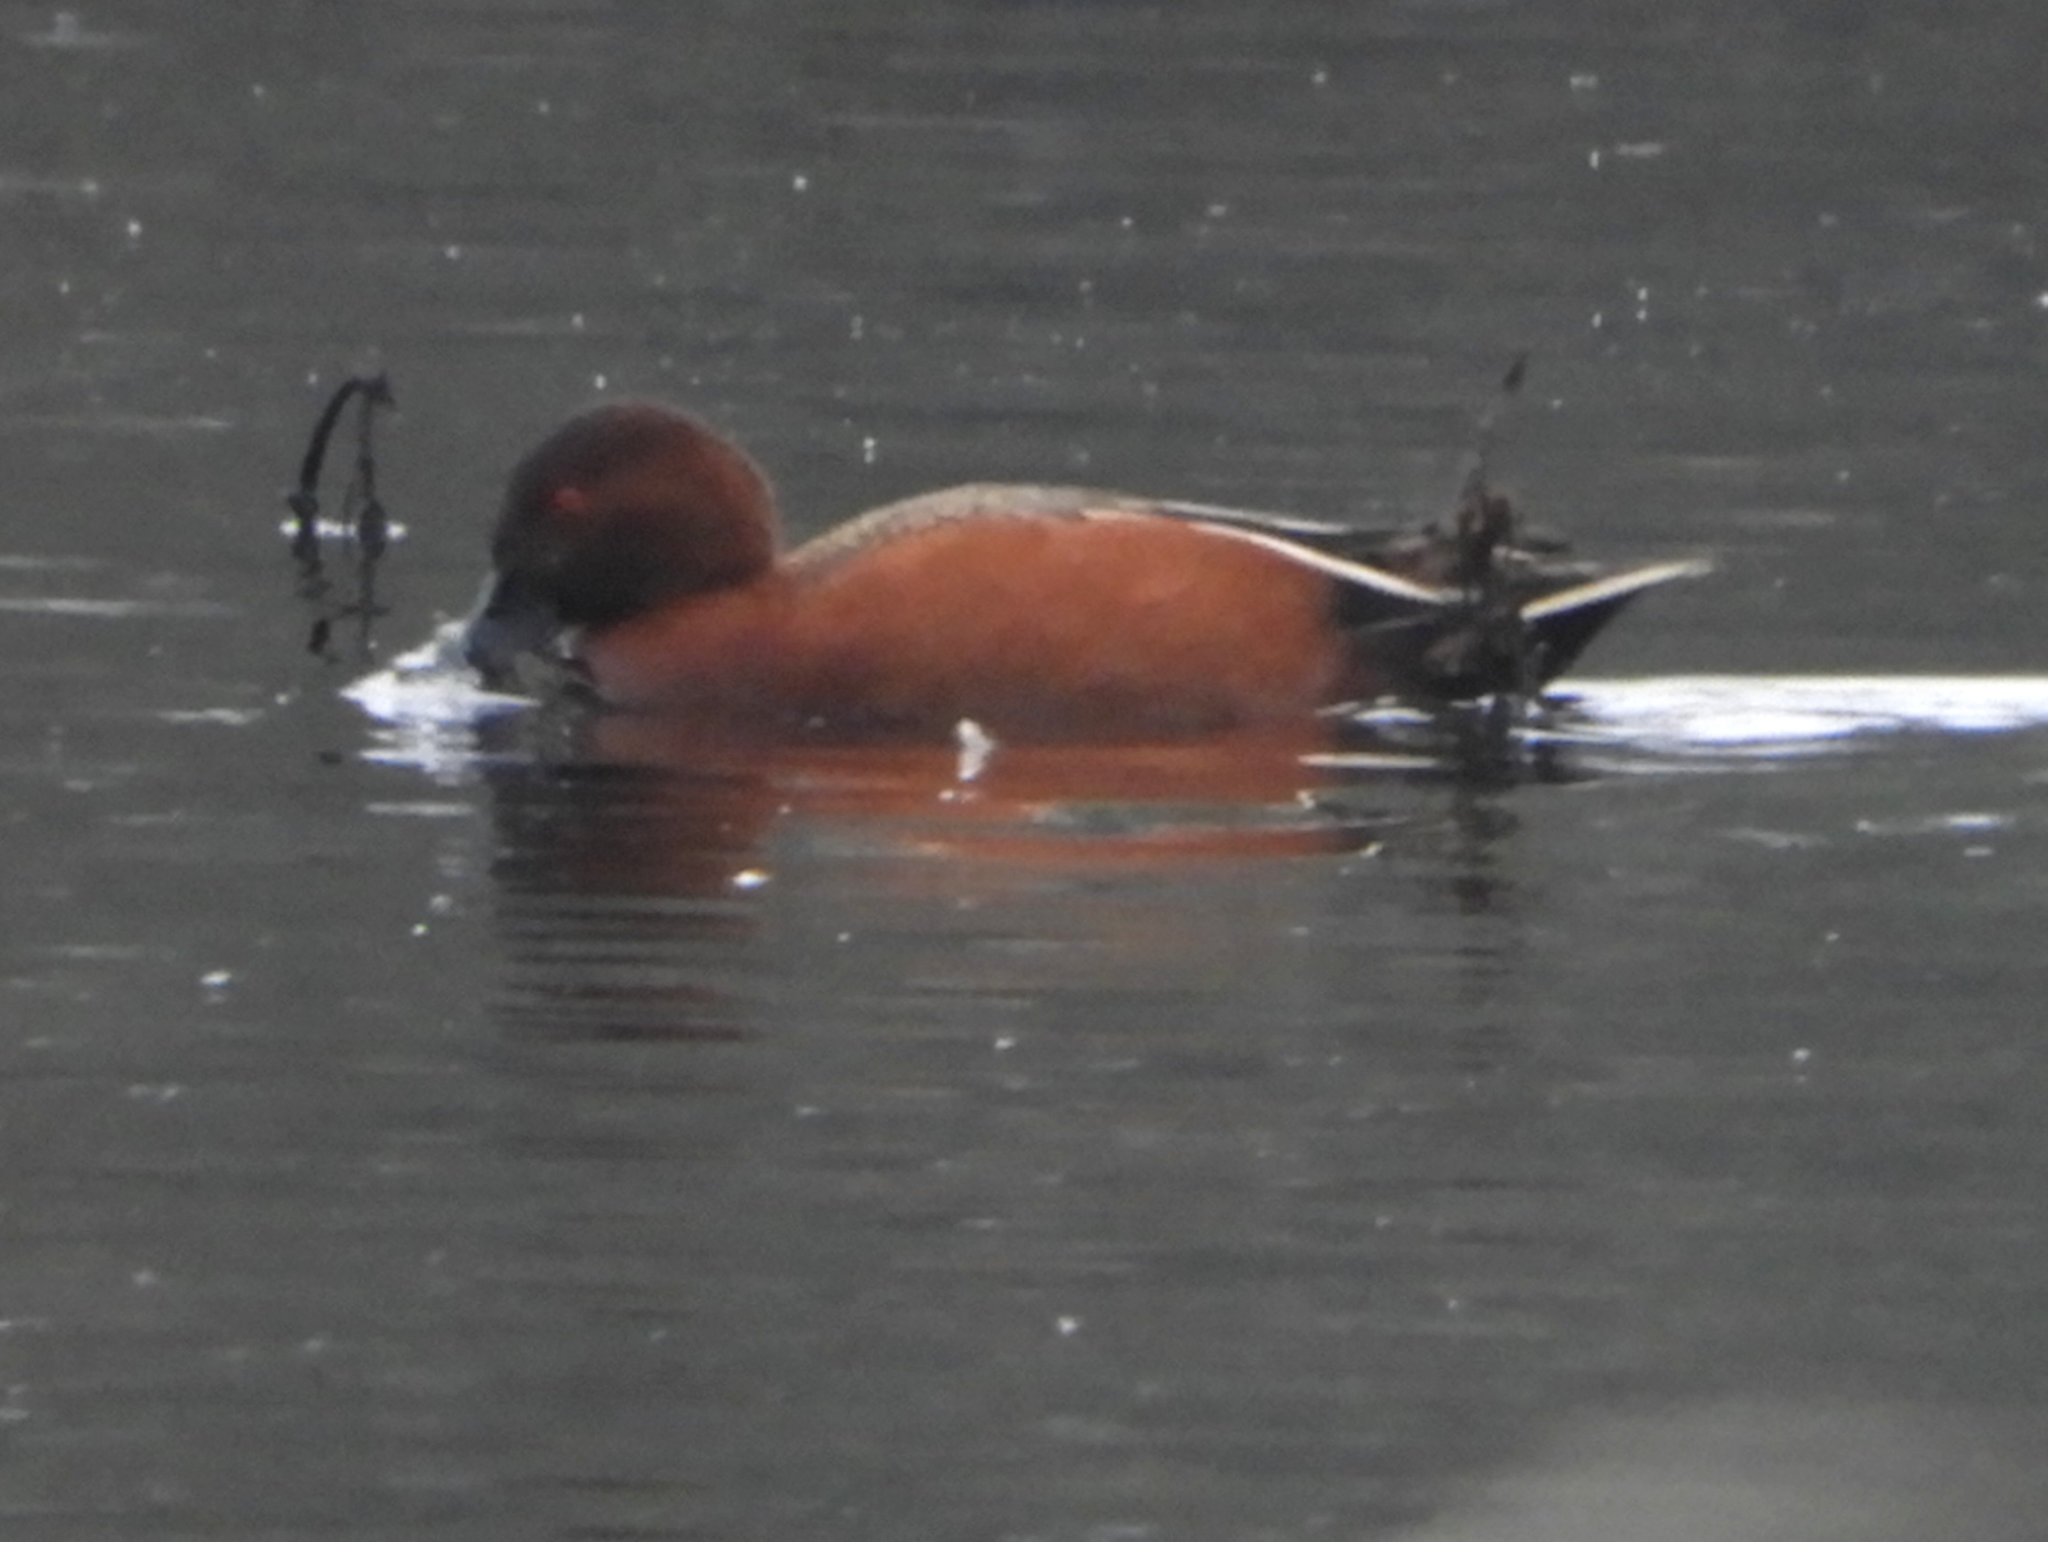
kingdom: Animalia
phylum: Chordata
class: Aves
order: Anseriformes
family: Anatidae
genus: Spatula
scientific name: Spatula cyanoptera
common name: Cinnamon teal
